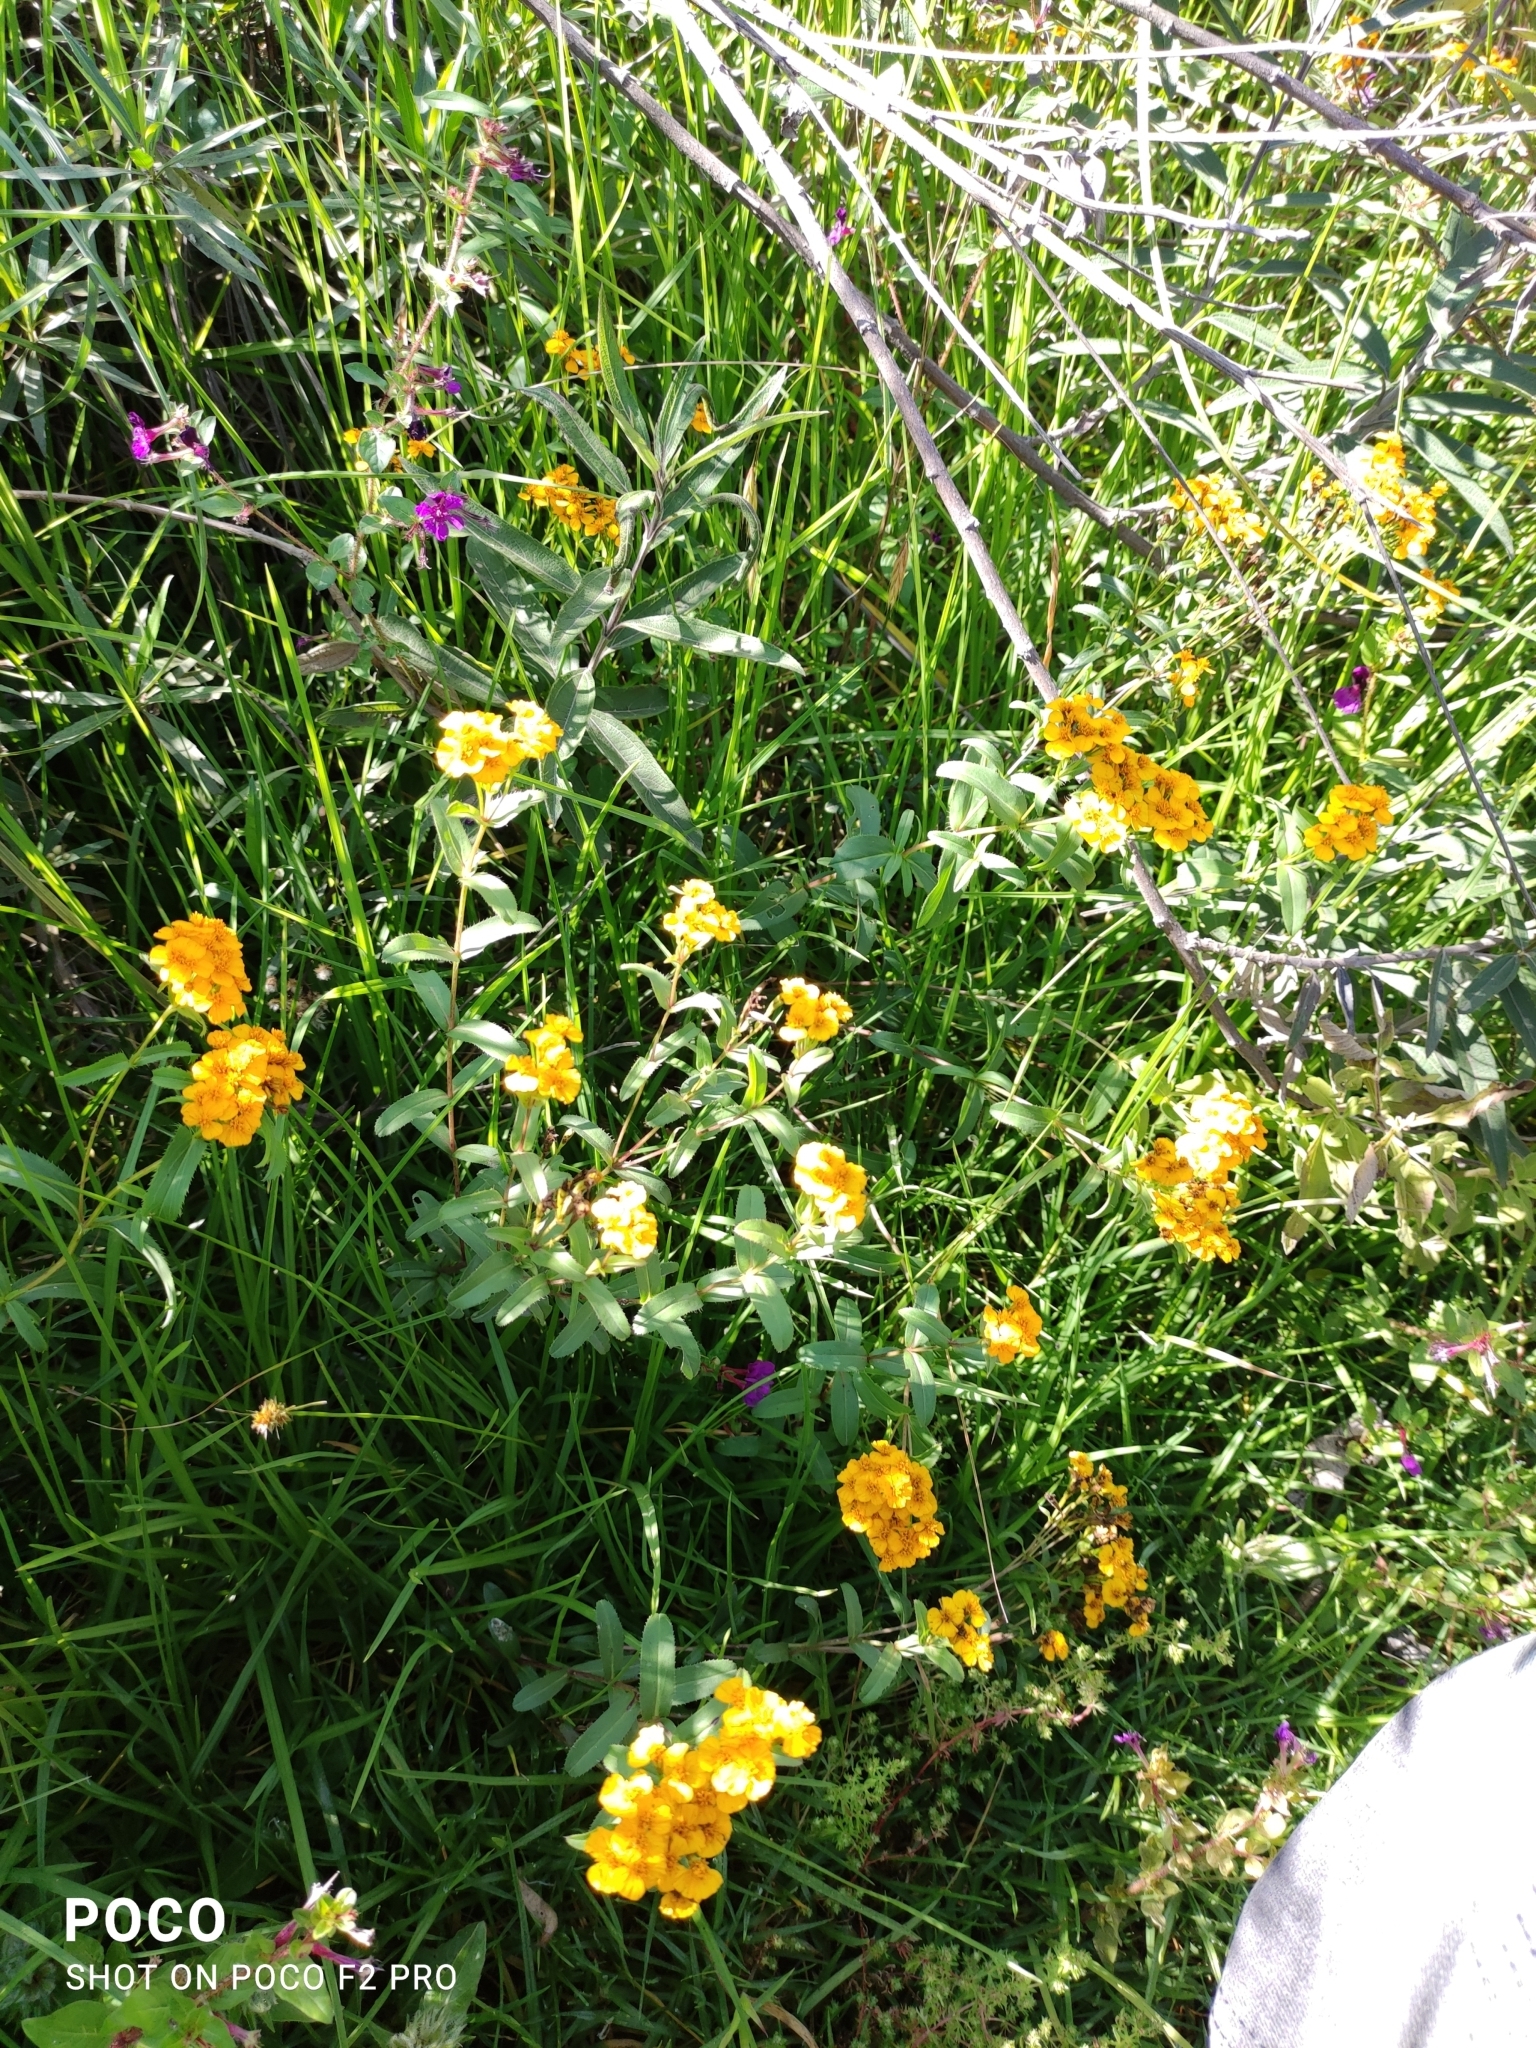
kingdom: Plantae
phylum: Tracheophyta
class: Magnoliopsida
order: Asterales
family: Asteraceae
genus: Tagetes
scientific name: Tagetes lucida
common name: Sweetscented marigold
